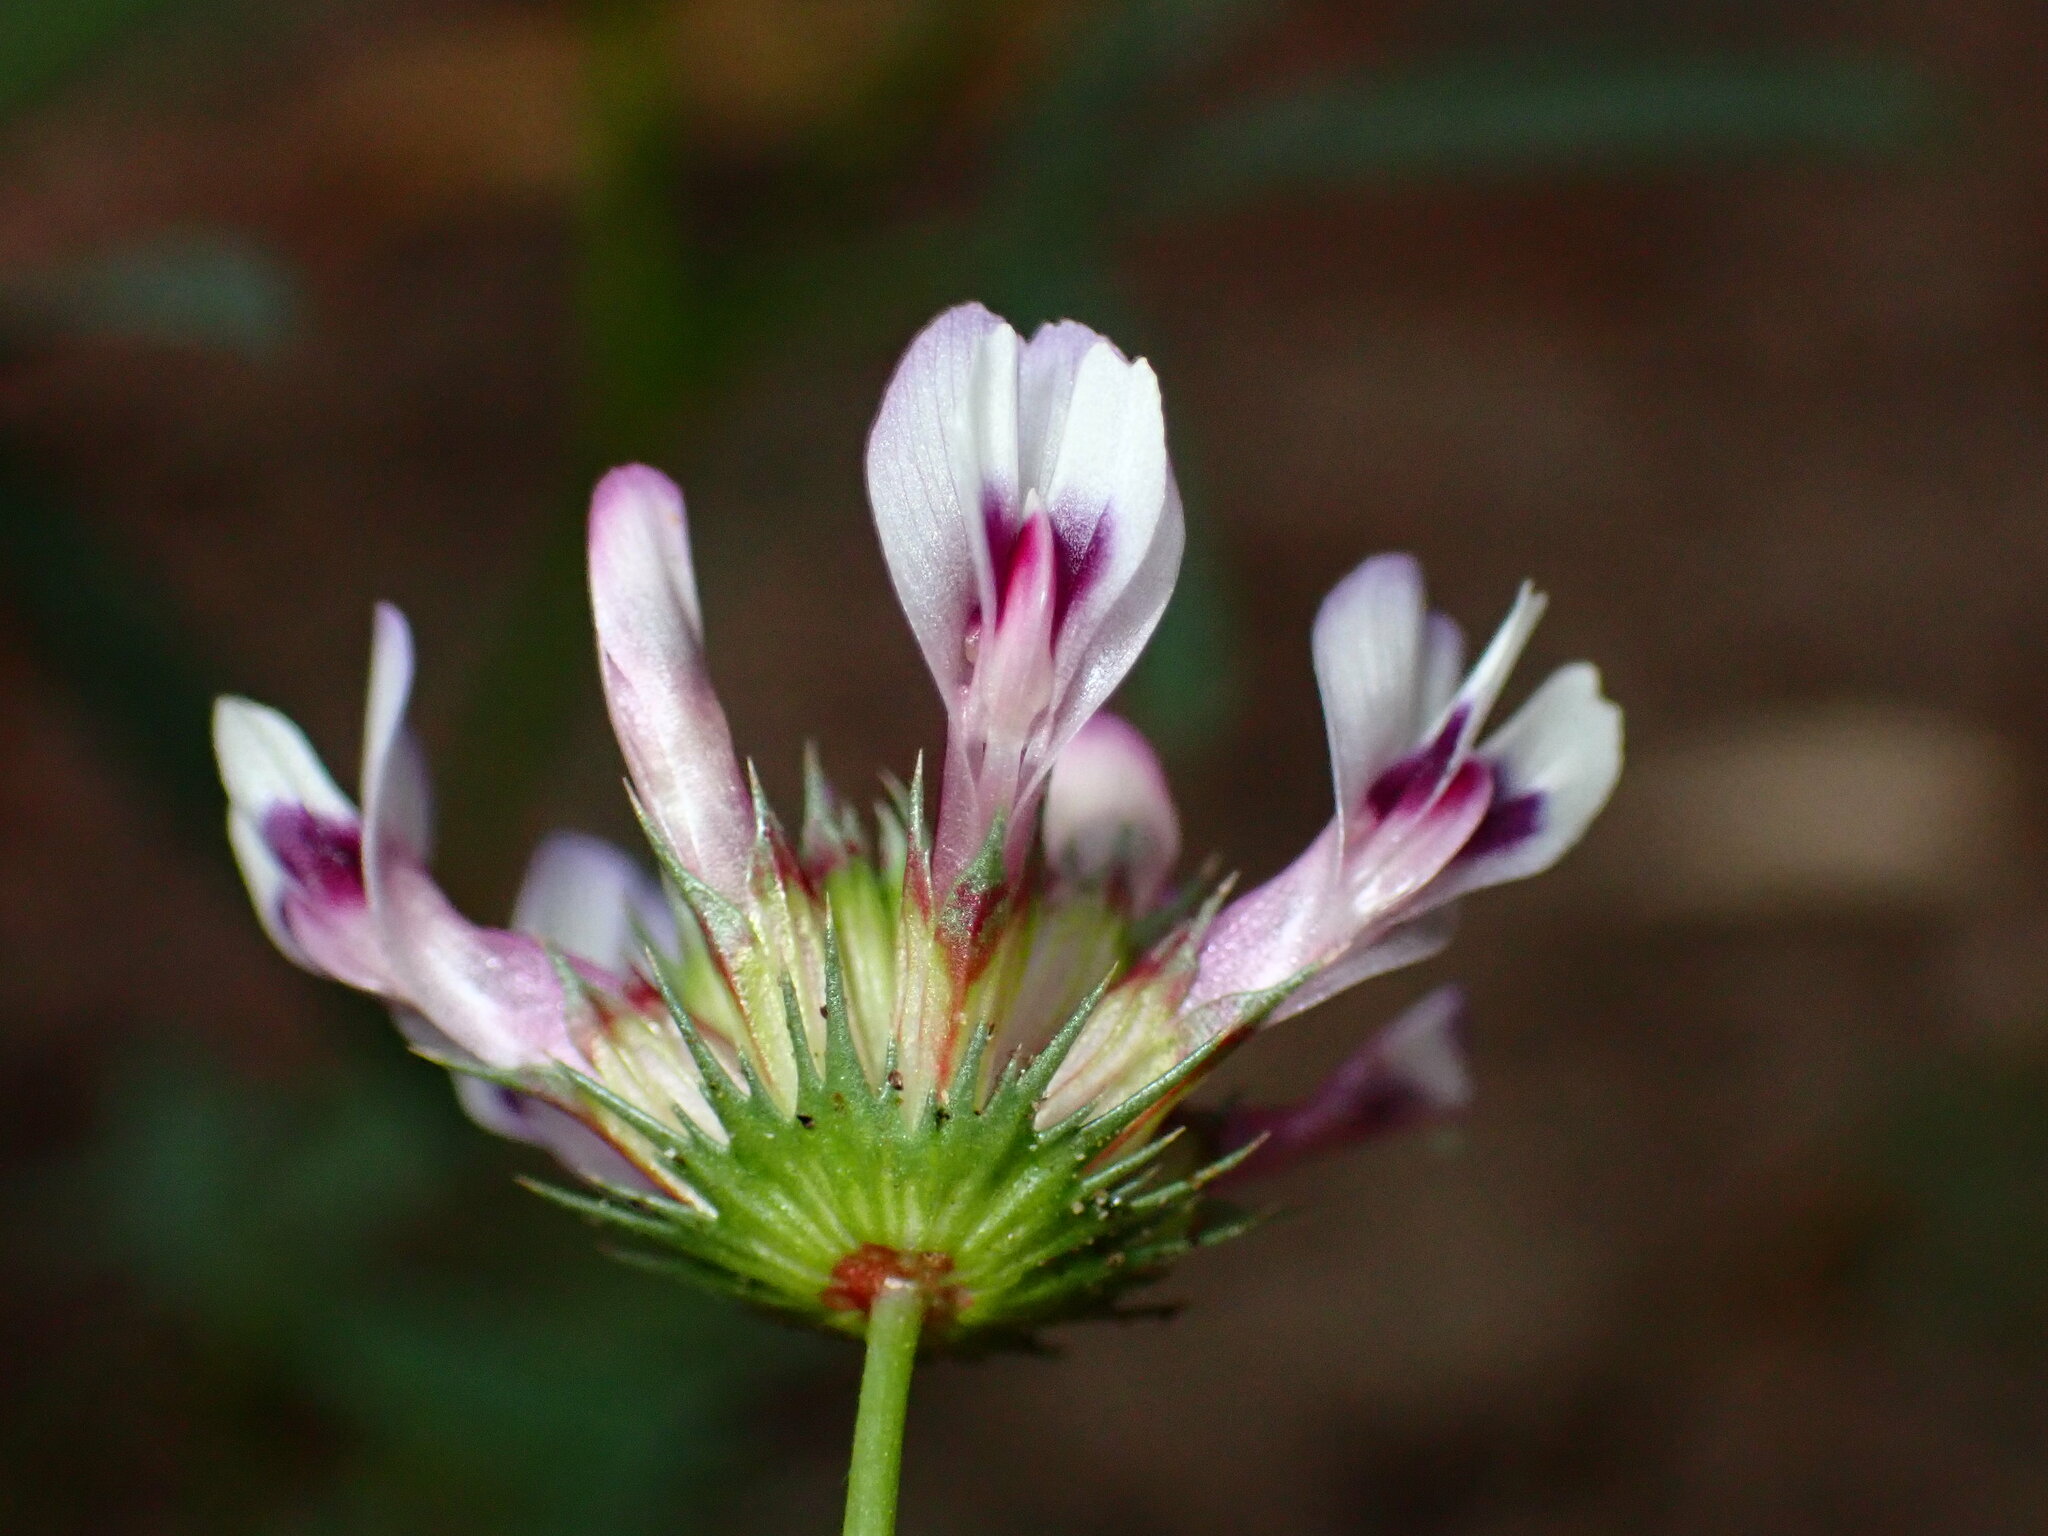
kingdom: Plantae
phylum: Tracheophyta
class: Magnoliopsida
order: Fabales
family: Fabaceae
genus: Trifolium
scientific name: Trifolium willdenovii
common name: Tomcat clover
